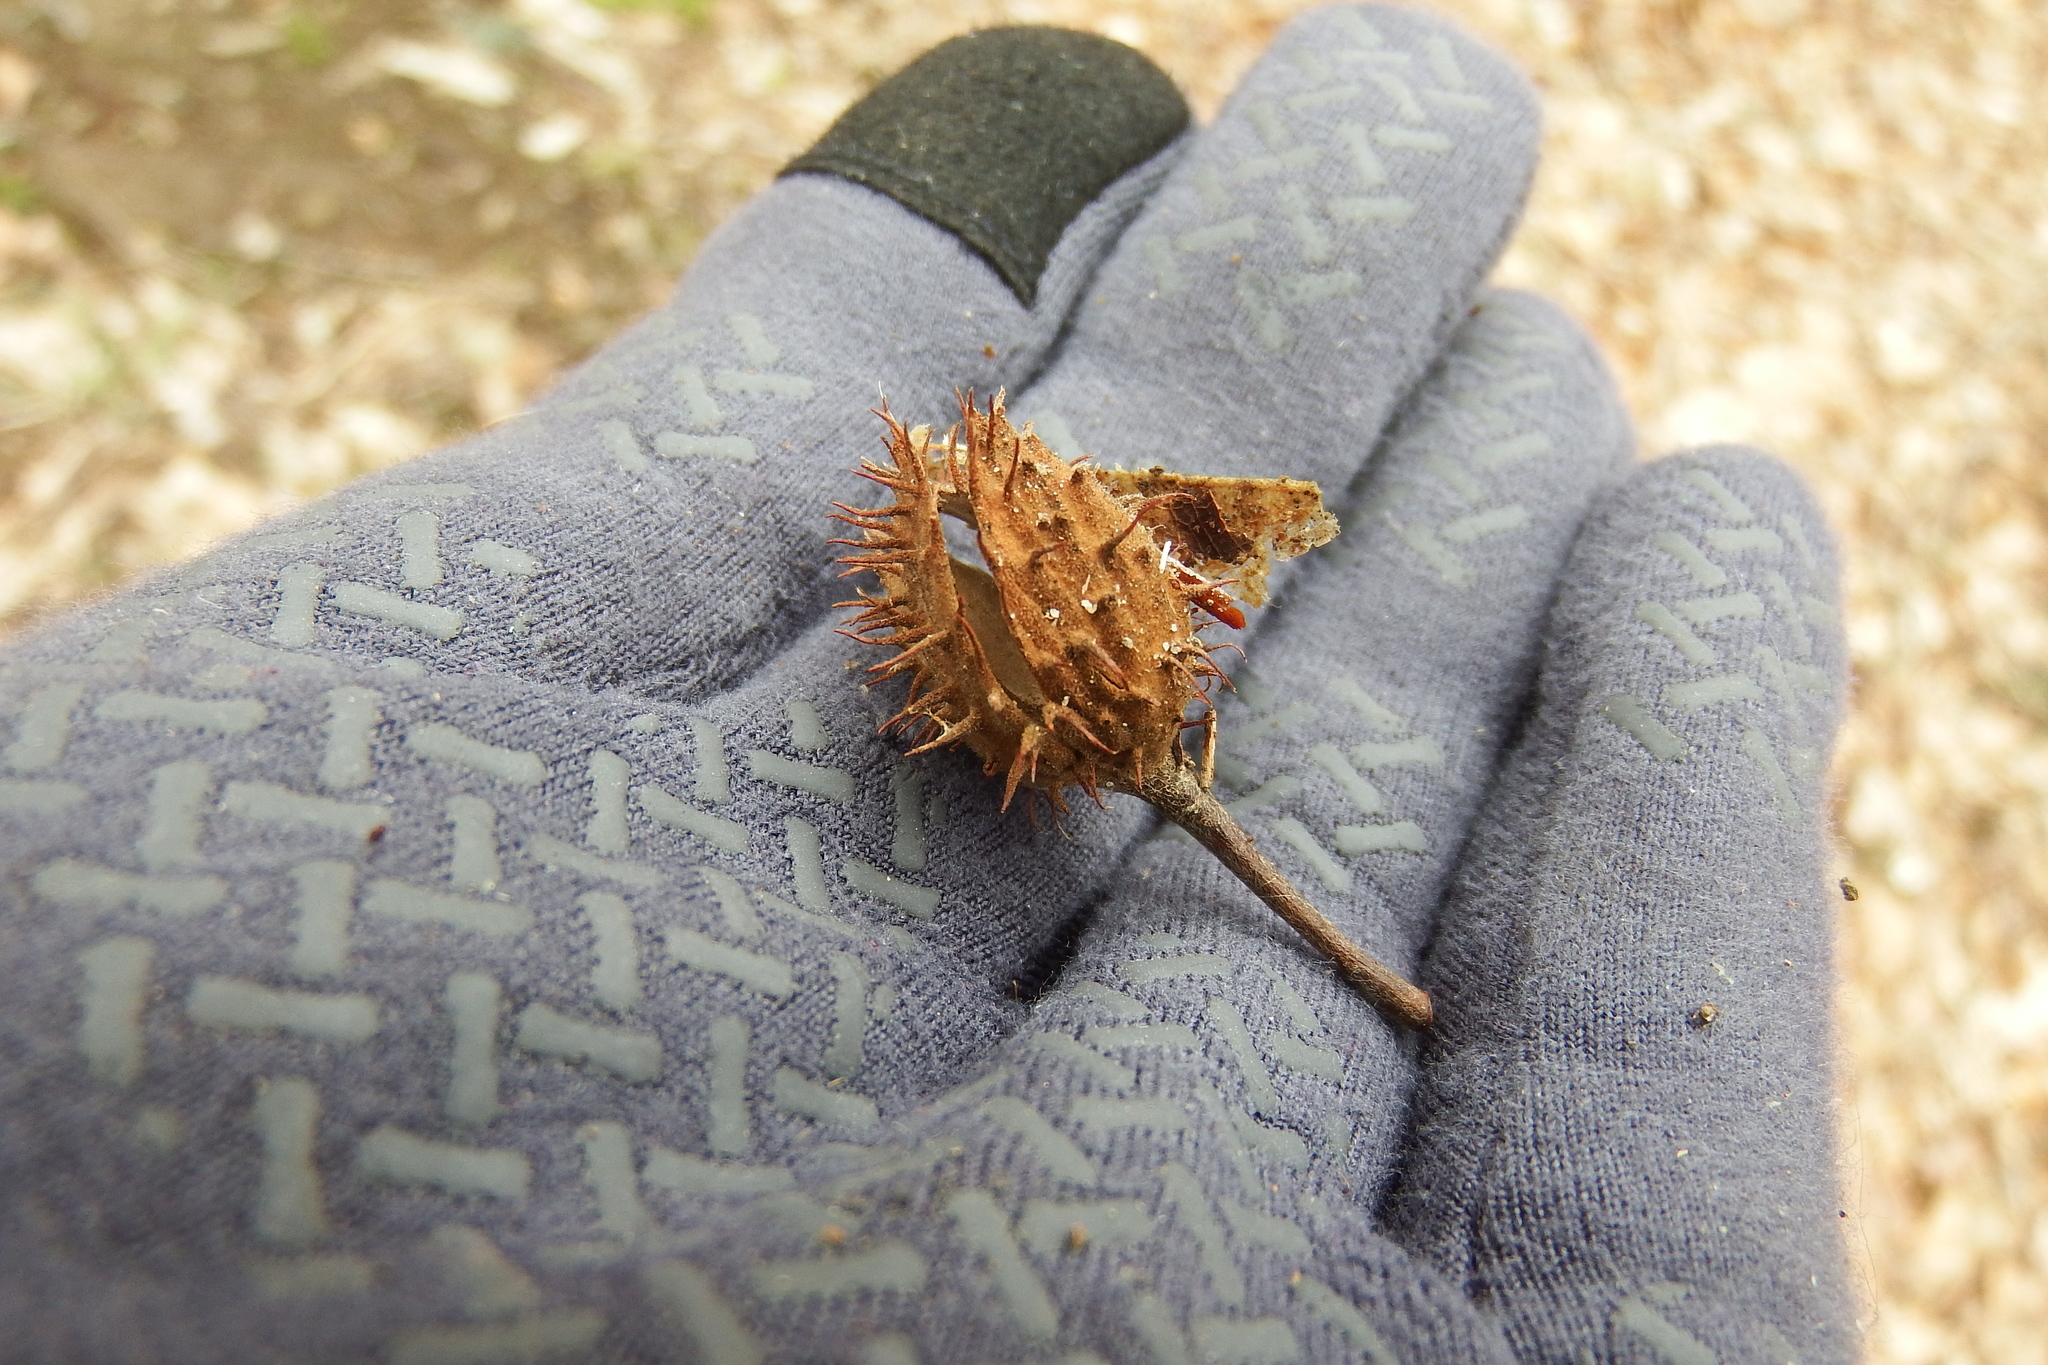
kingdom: Plantae
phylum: Tracheophyta
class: Magnoliopsida
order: Fagales
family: Fagaceae
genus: Fagus
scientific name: Fagus grandifolia
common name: American beech
